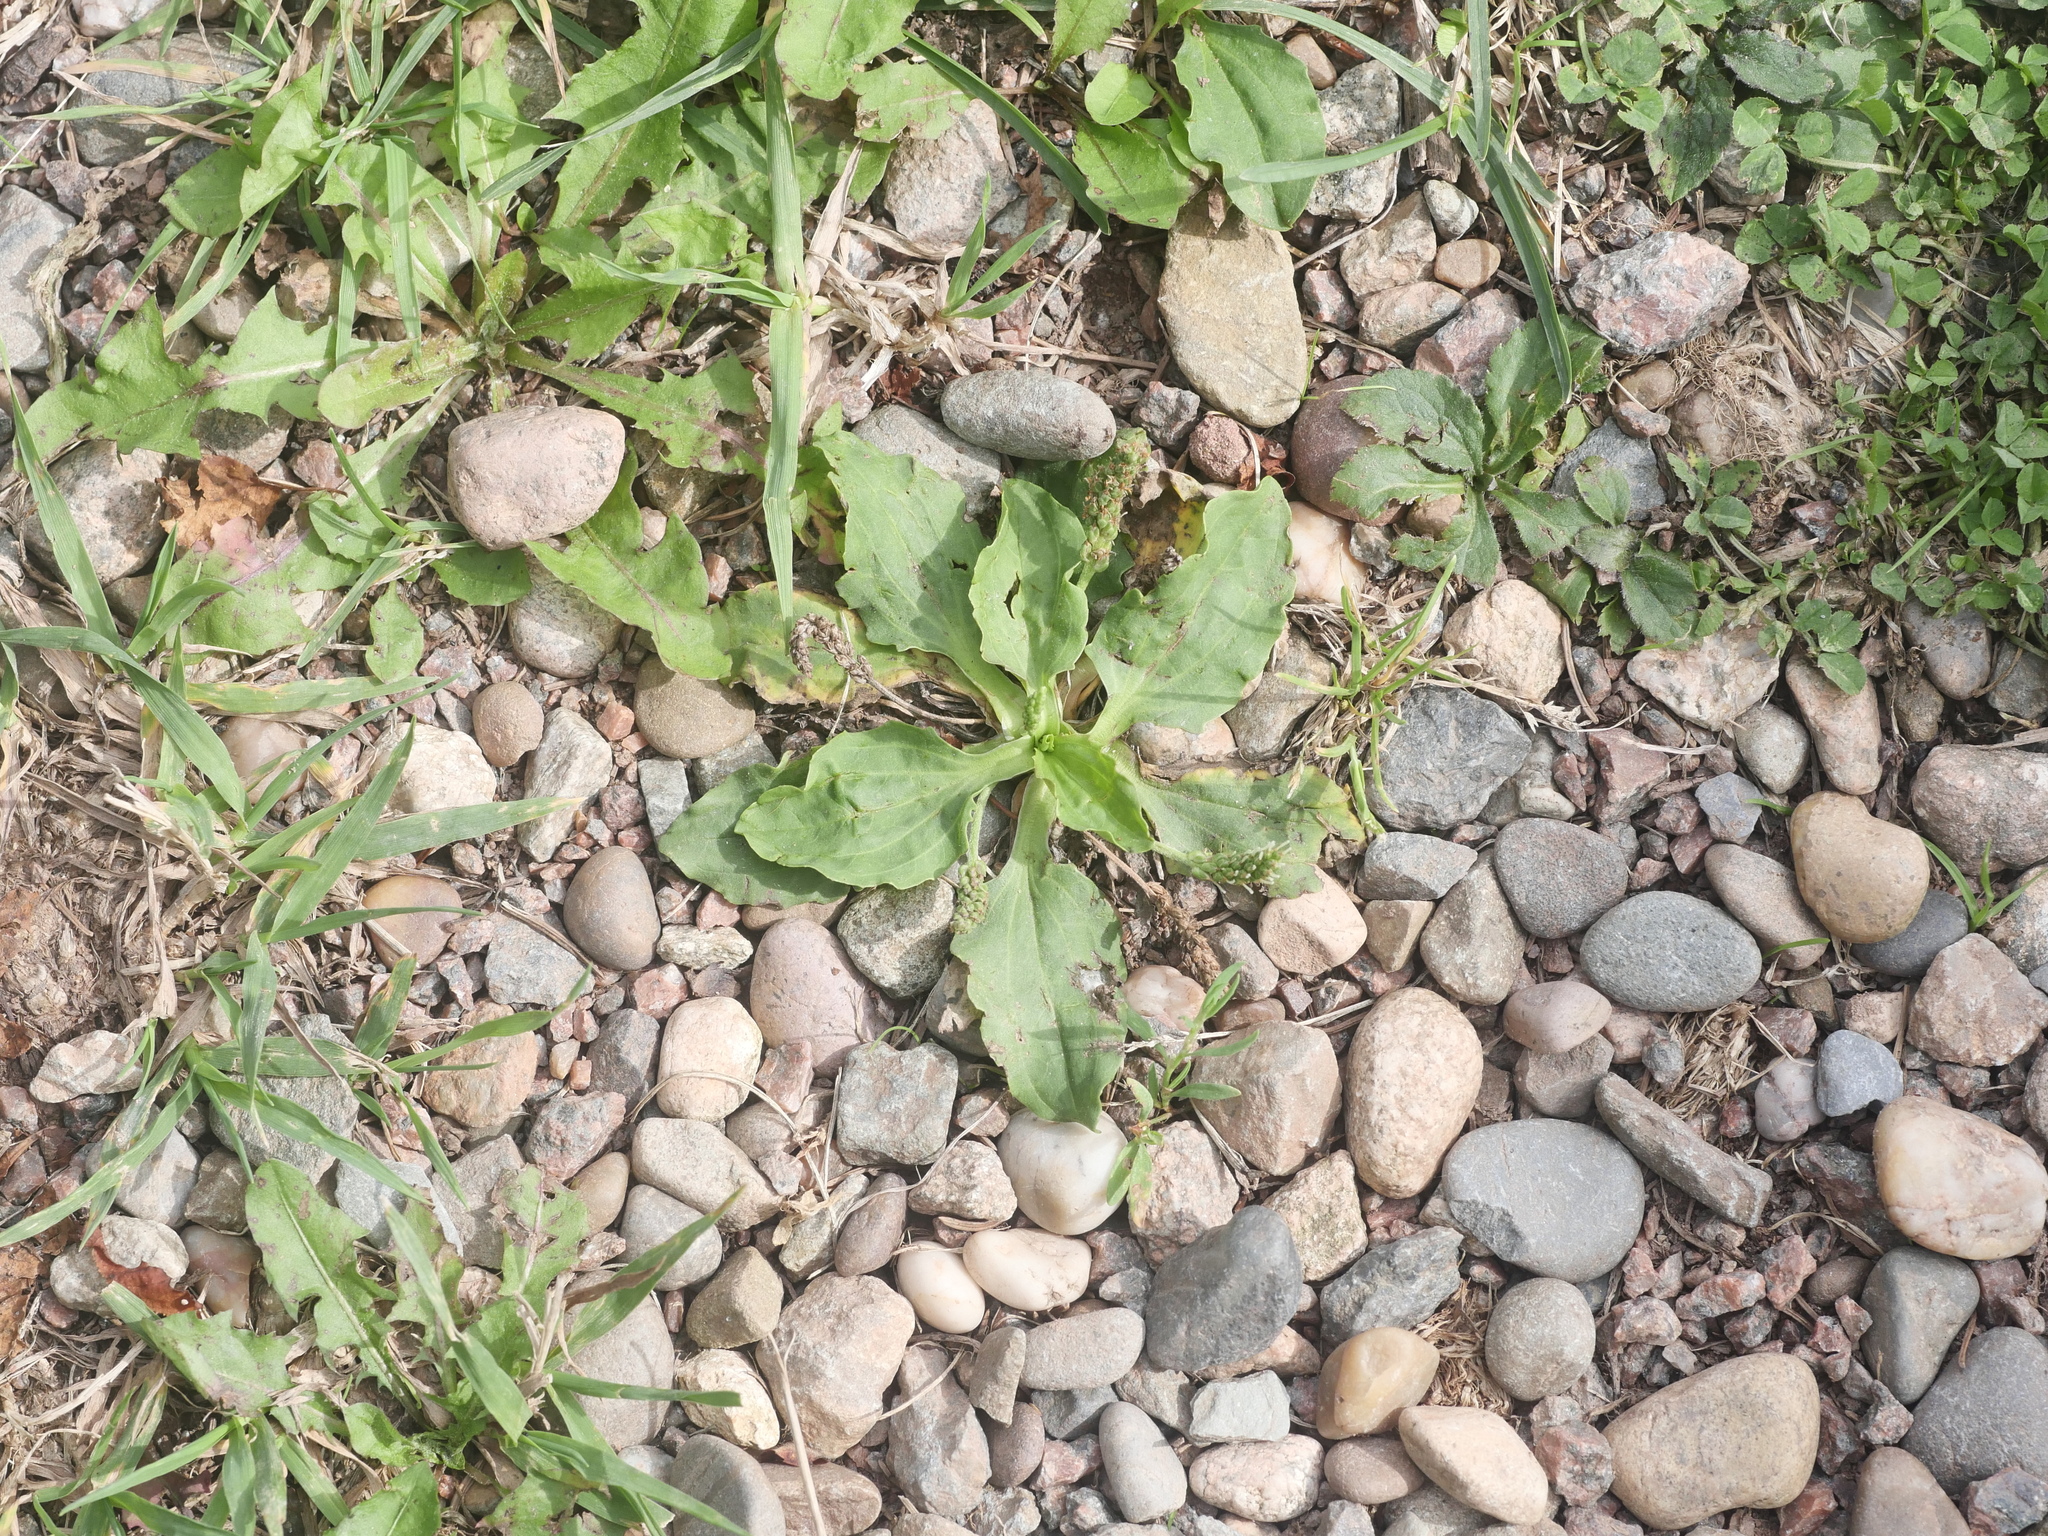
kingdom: Plantae
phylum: Tracheophyta
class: Magnoliopsida
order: Lamiales
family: Plantaginaceae
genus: Plantago
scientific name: Plantago major
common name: Common plantain
